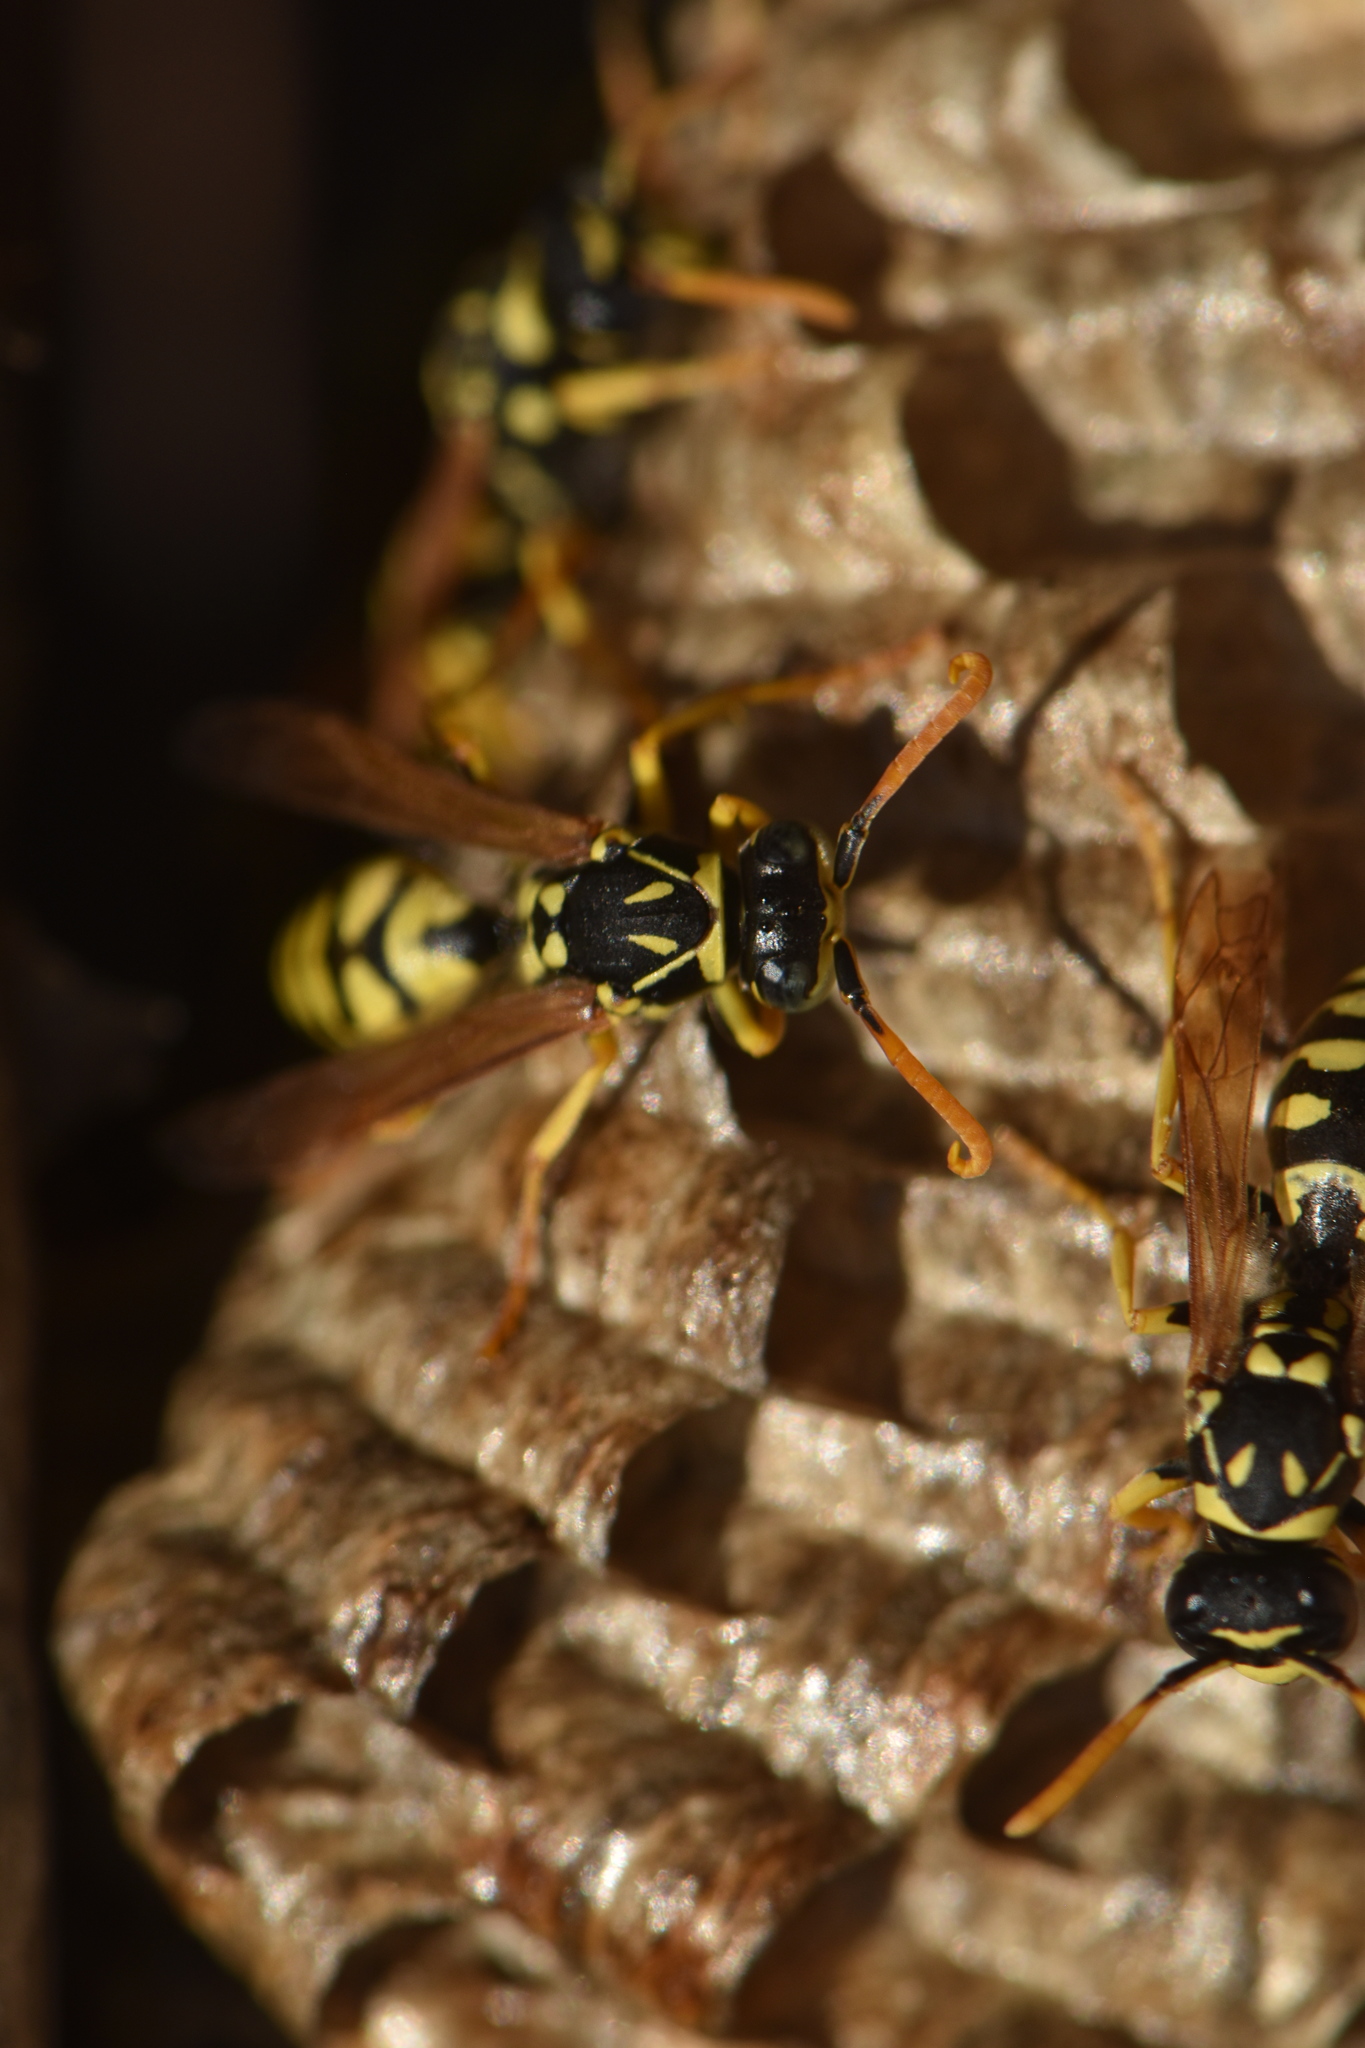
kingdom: Animalia
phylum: Arthropoda
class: Insecta
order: Hymenoptera
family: Eumenidae
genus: Polistes
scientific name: Polistes gallicus
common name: Paper wasp
